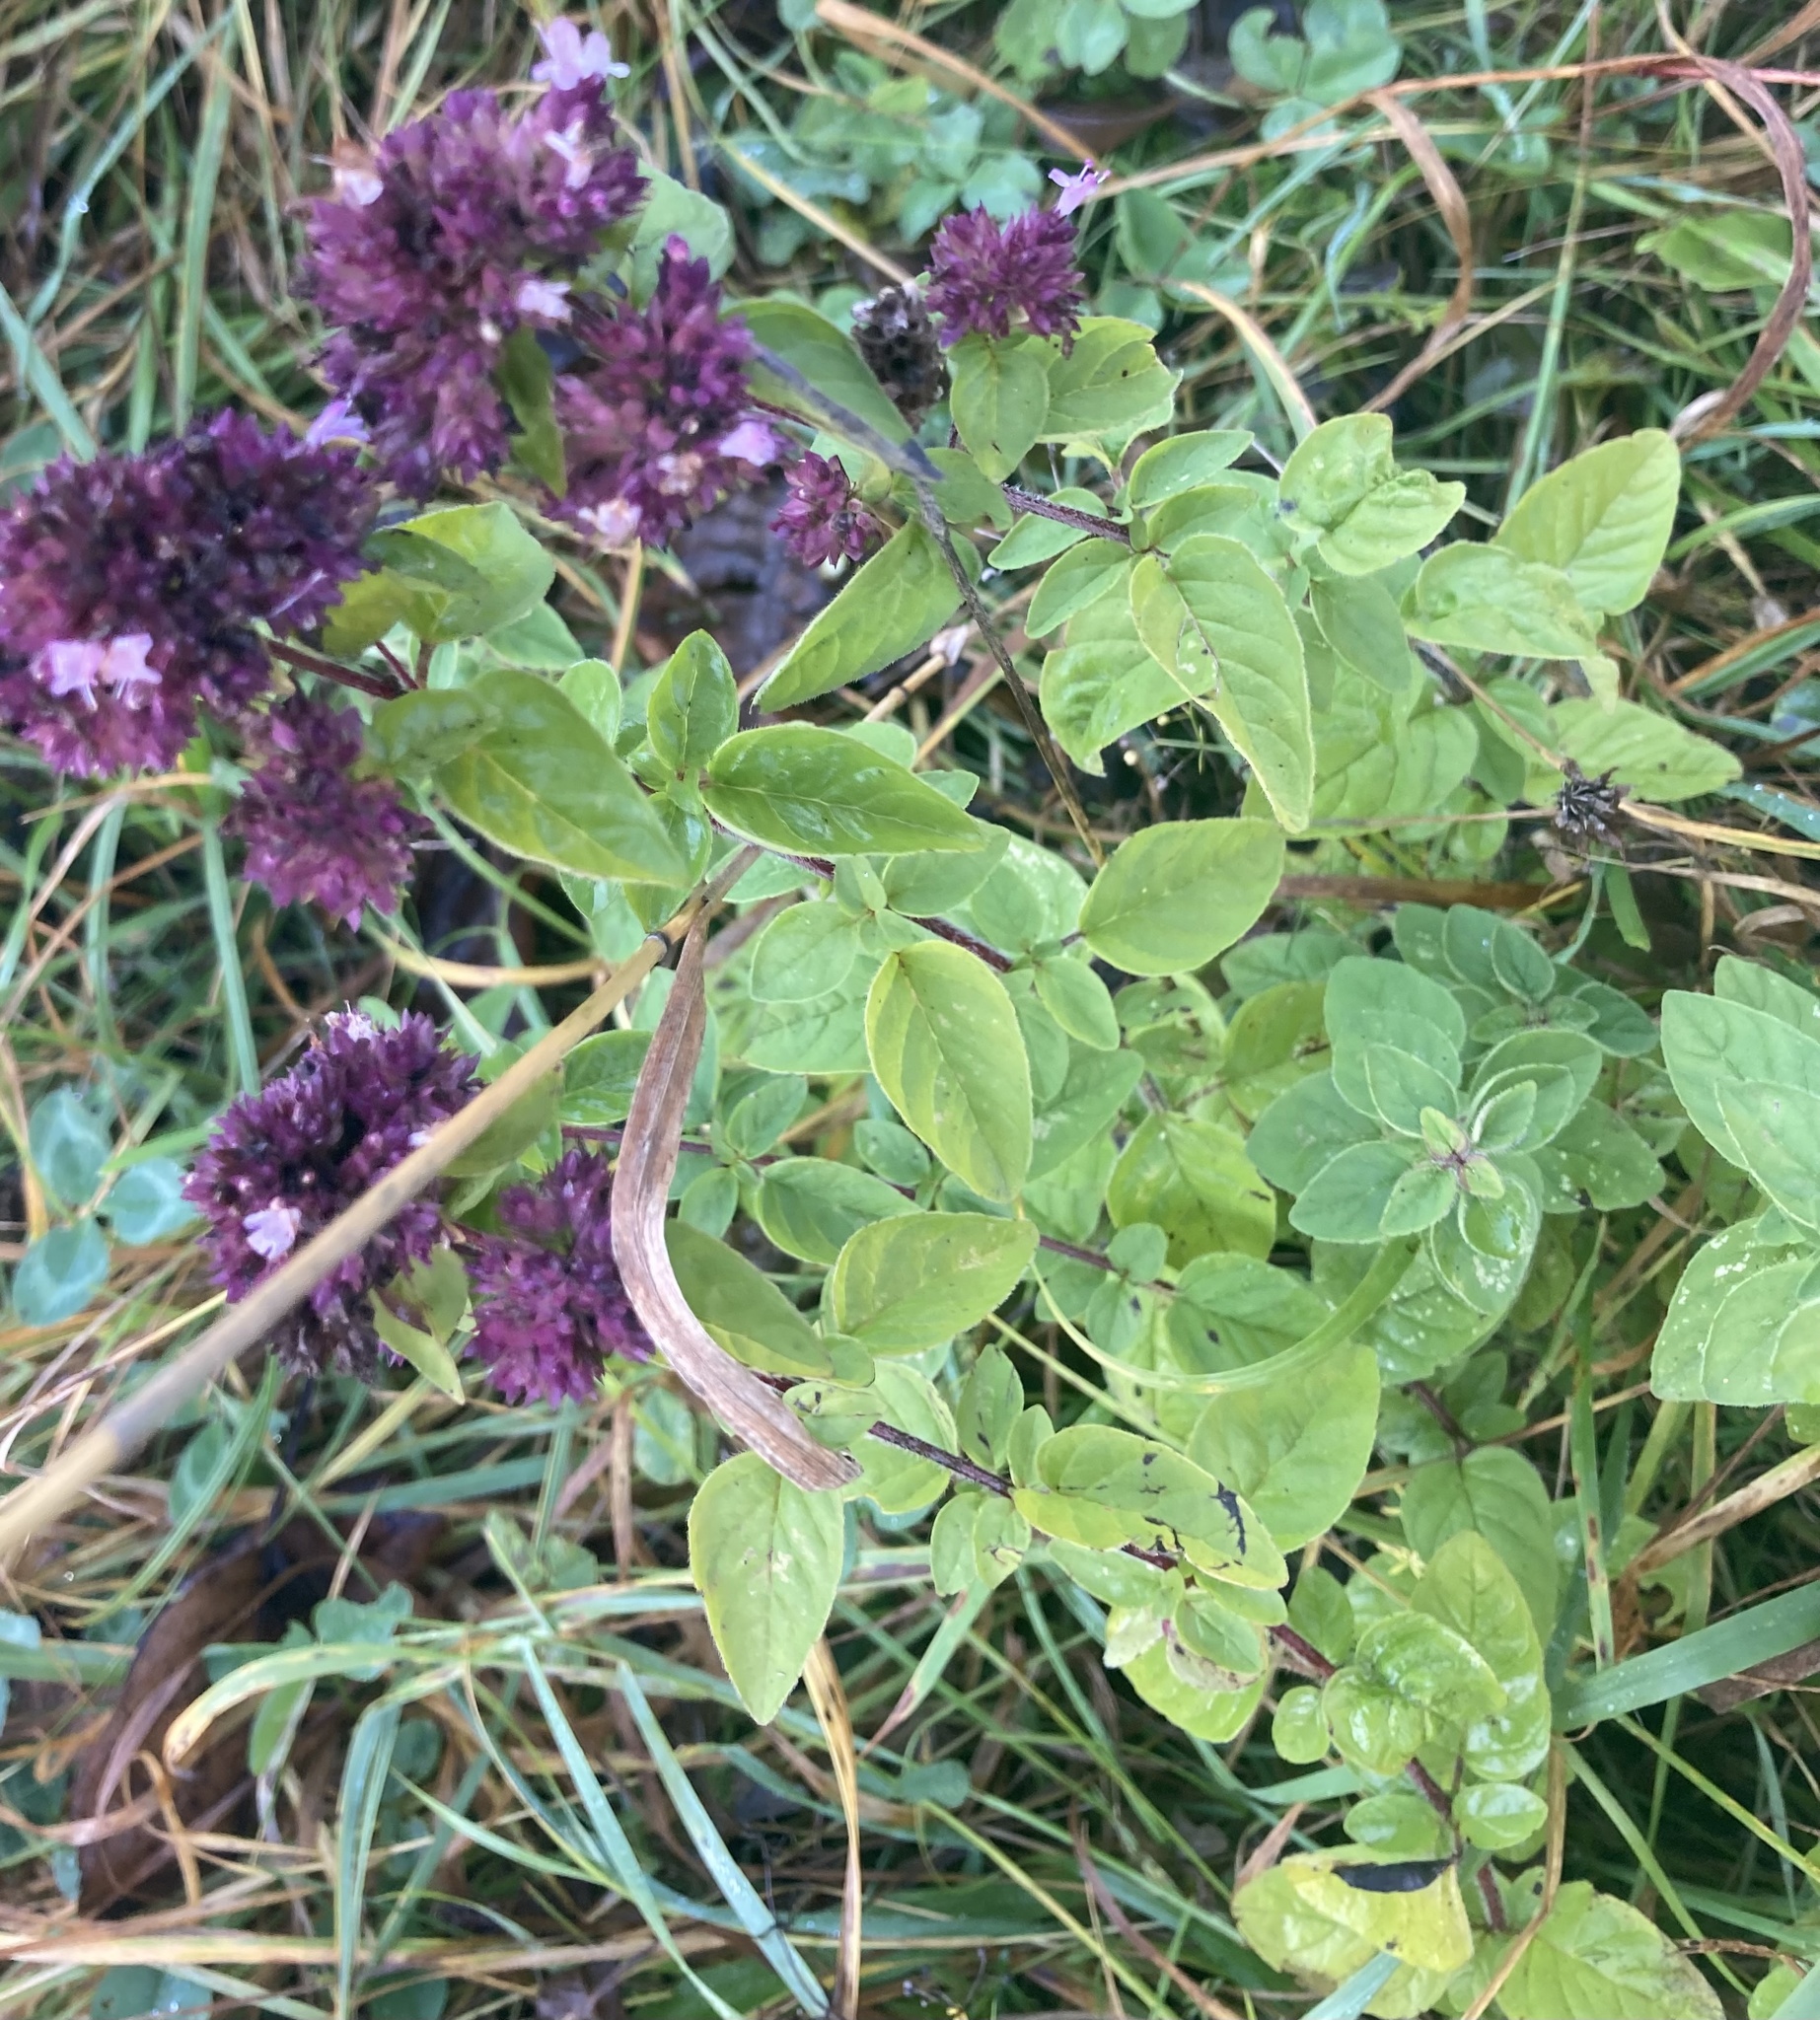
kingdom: Plantae
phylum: Tracheophyta
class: Magnoliopsida
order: Lamiales
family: Lamiaceae
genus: Origanum
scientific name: Origanum vulgare
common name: Wild marjoram
